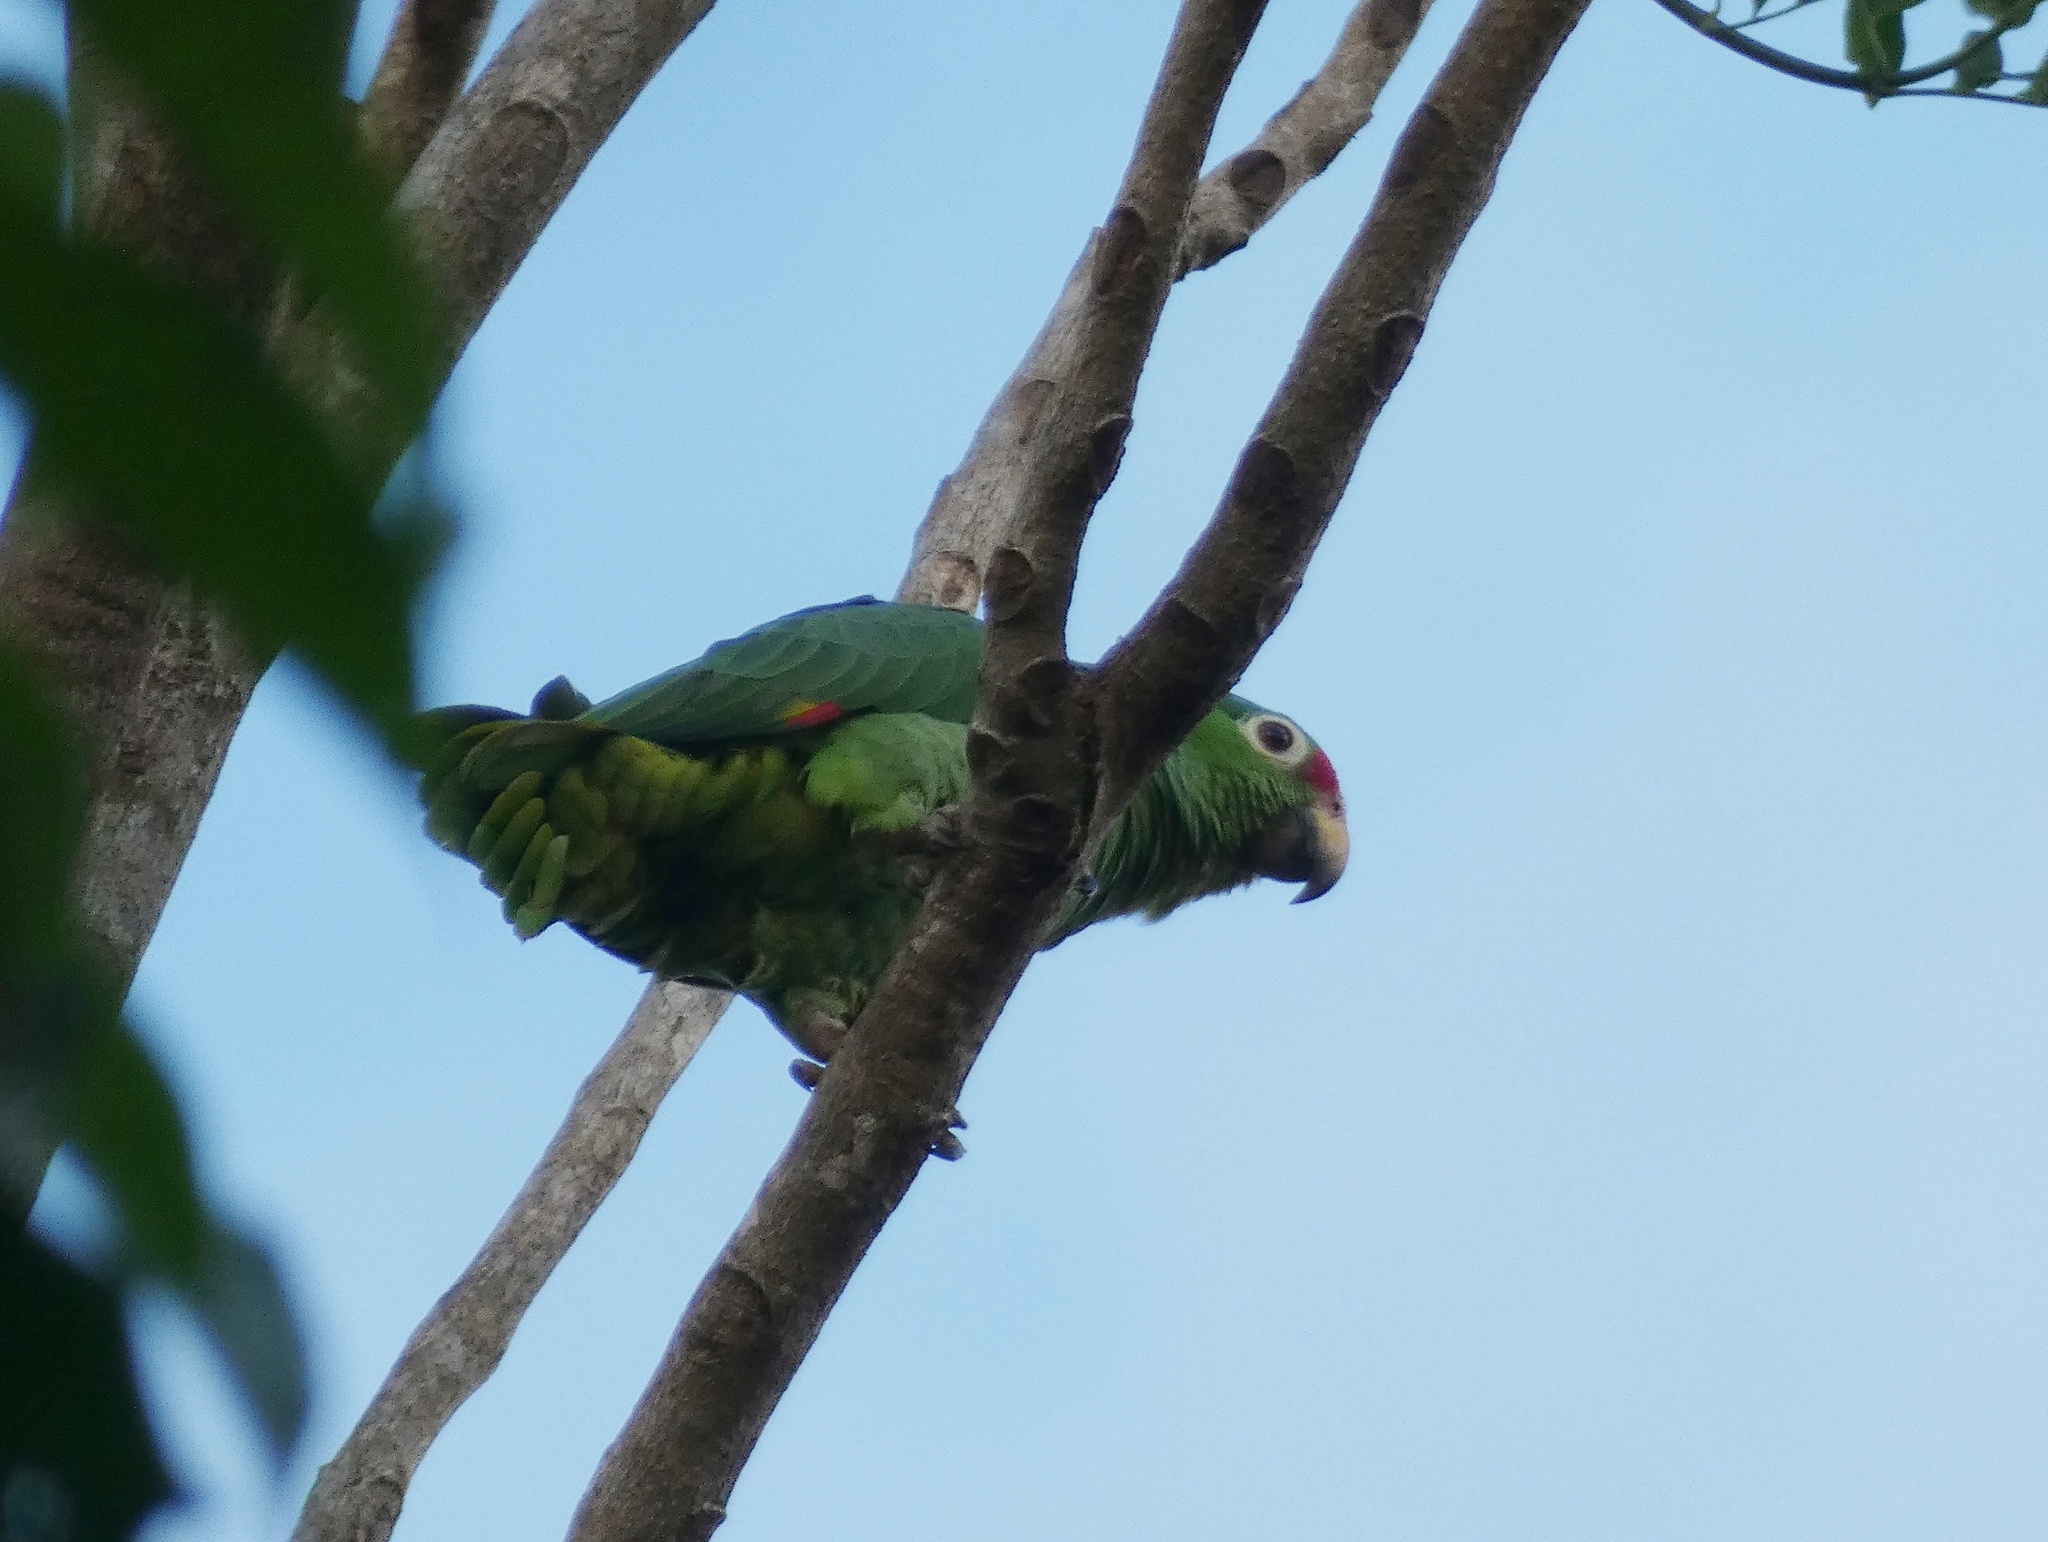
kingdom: Animalia
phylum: Chordata
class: Aves
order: Psittaciformes
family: Psittacidae
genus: Amazona
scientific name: Amazona autumnalis
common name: Red-lored amazon
